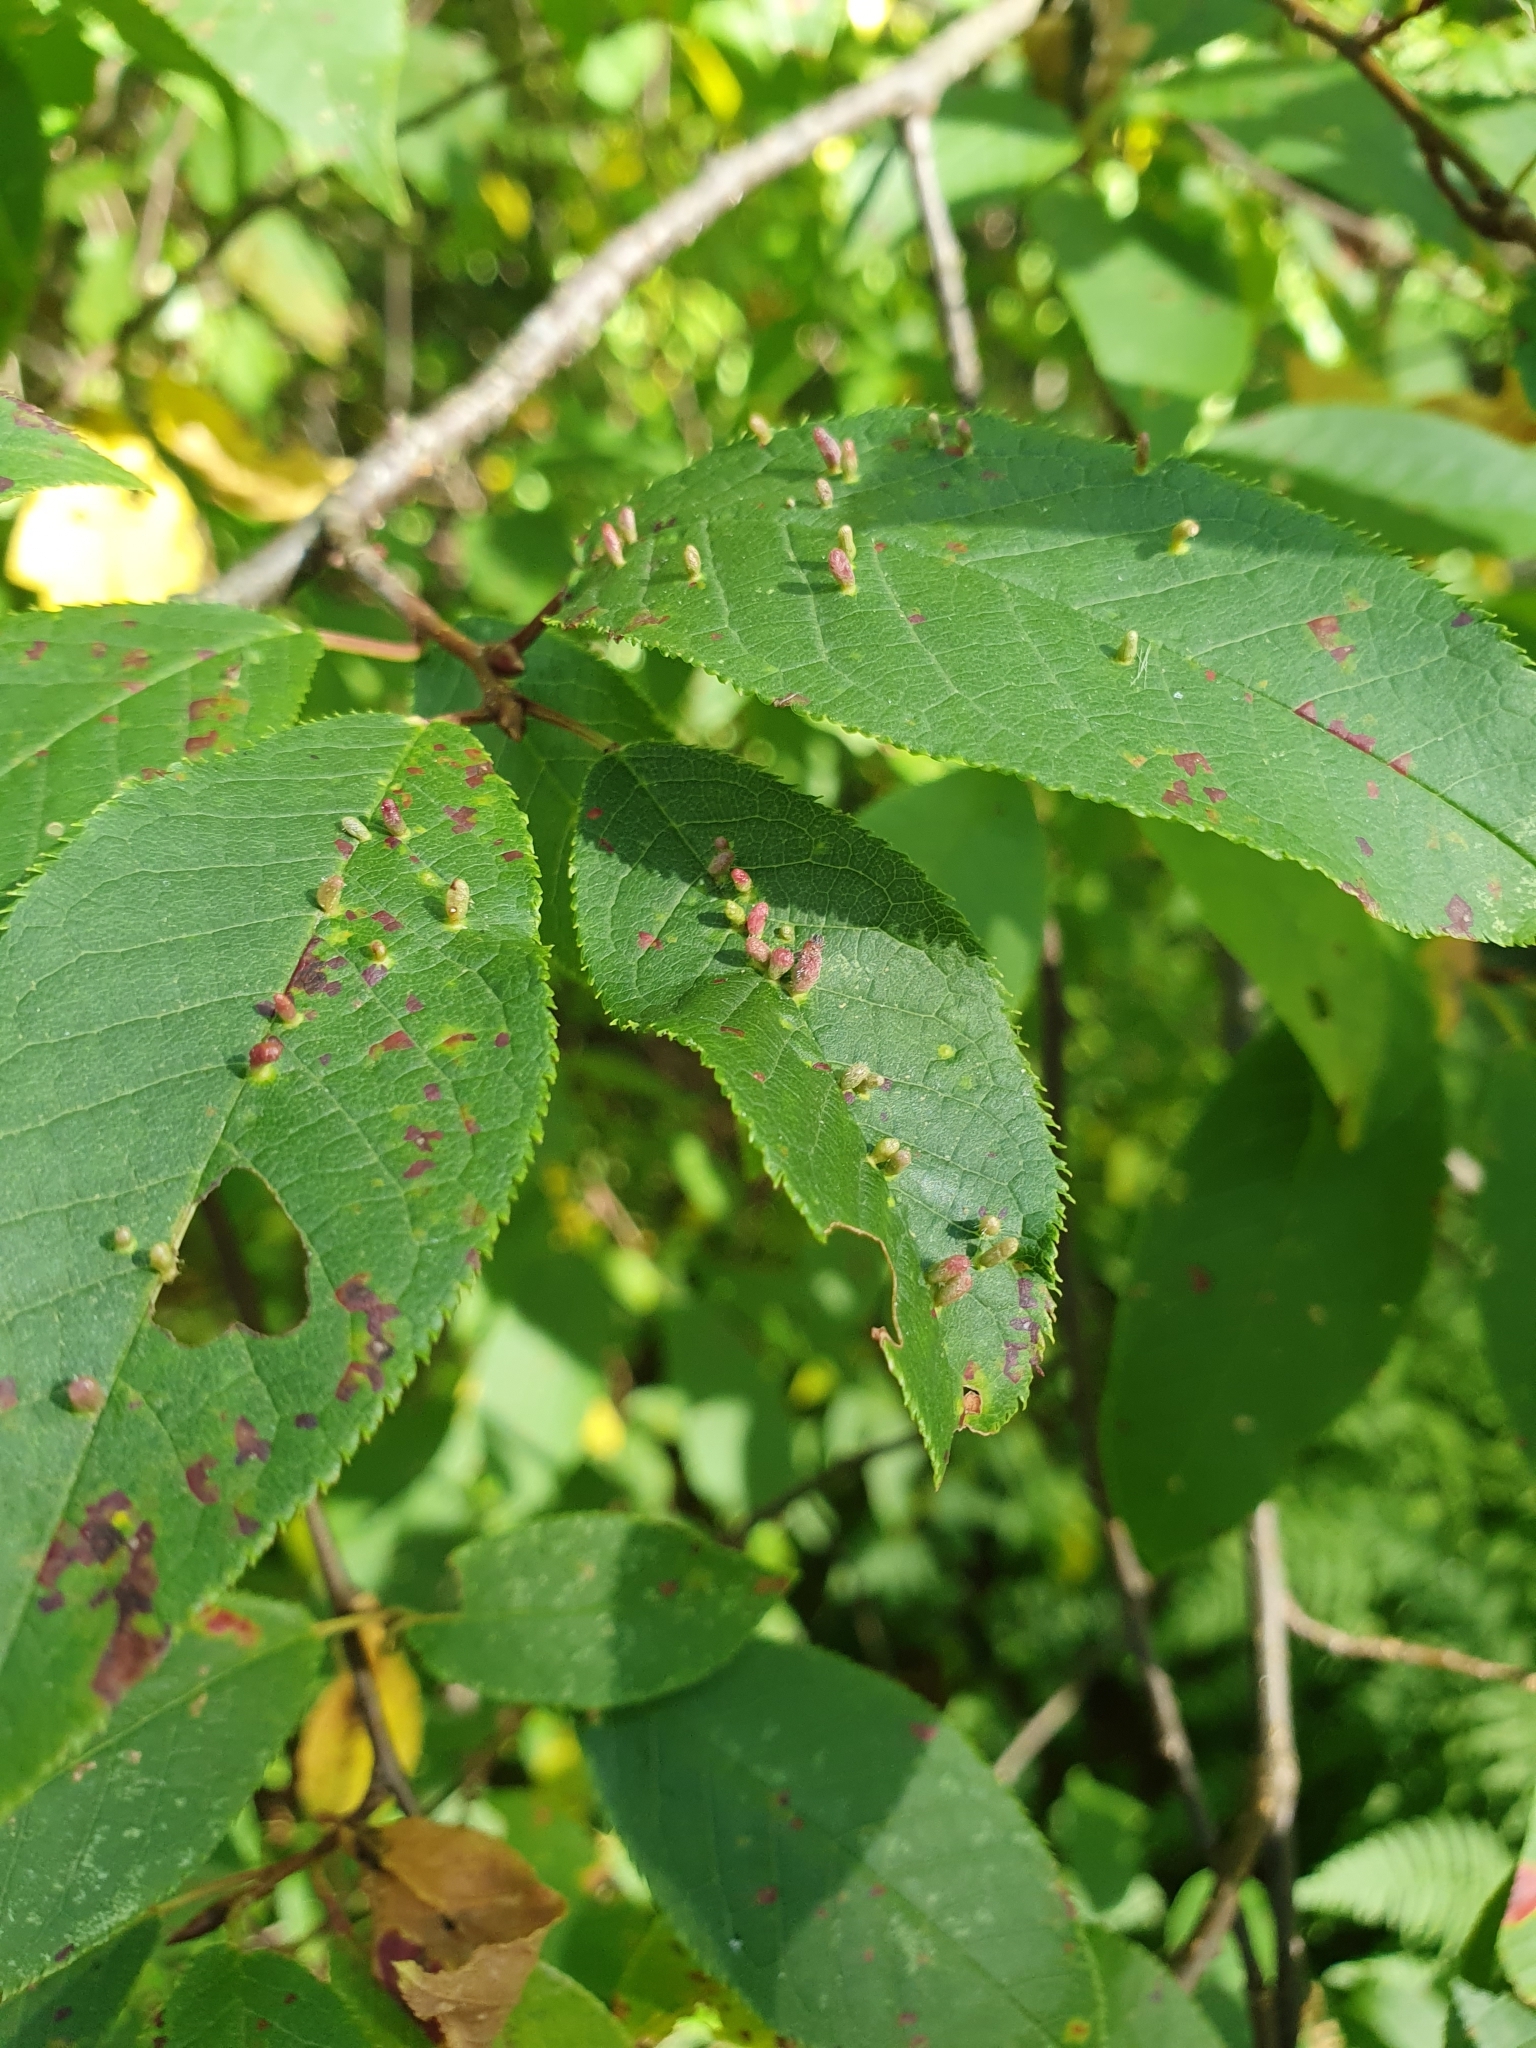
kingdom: Animalia
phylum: Arthropoda
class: Arachnida
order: Trombidiformes
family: Eriophyidae
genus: Phyllocoptes
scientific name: Phyllocoptes eupadi
